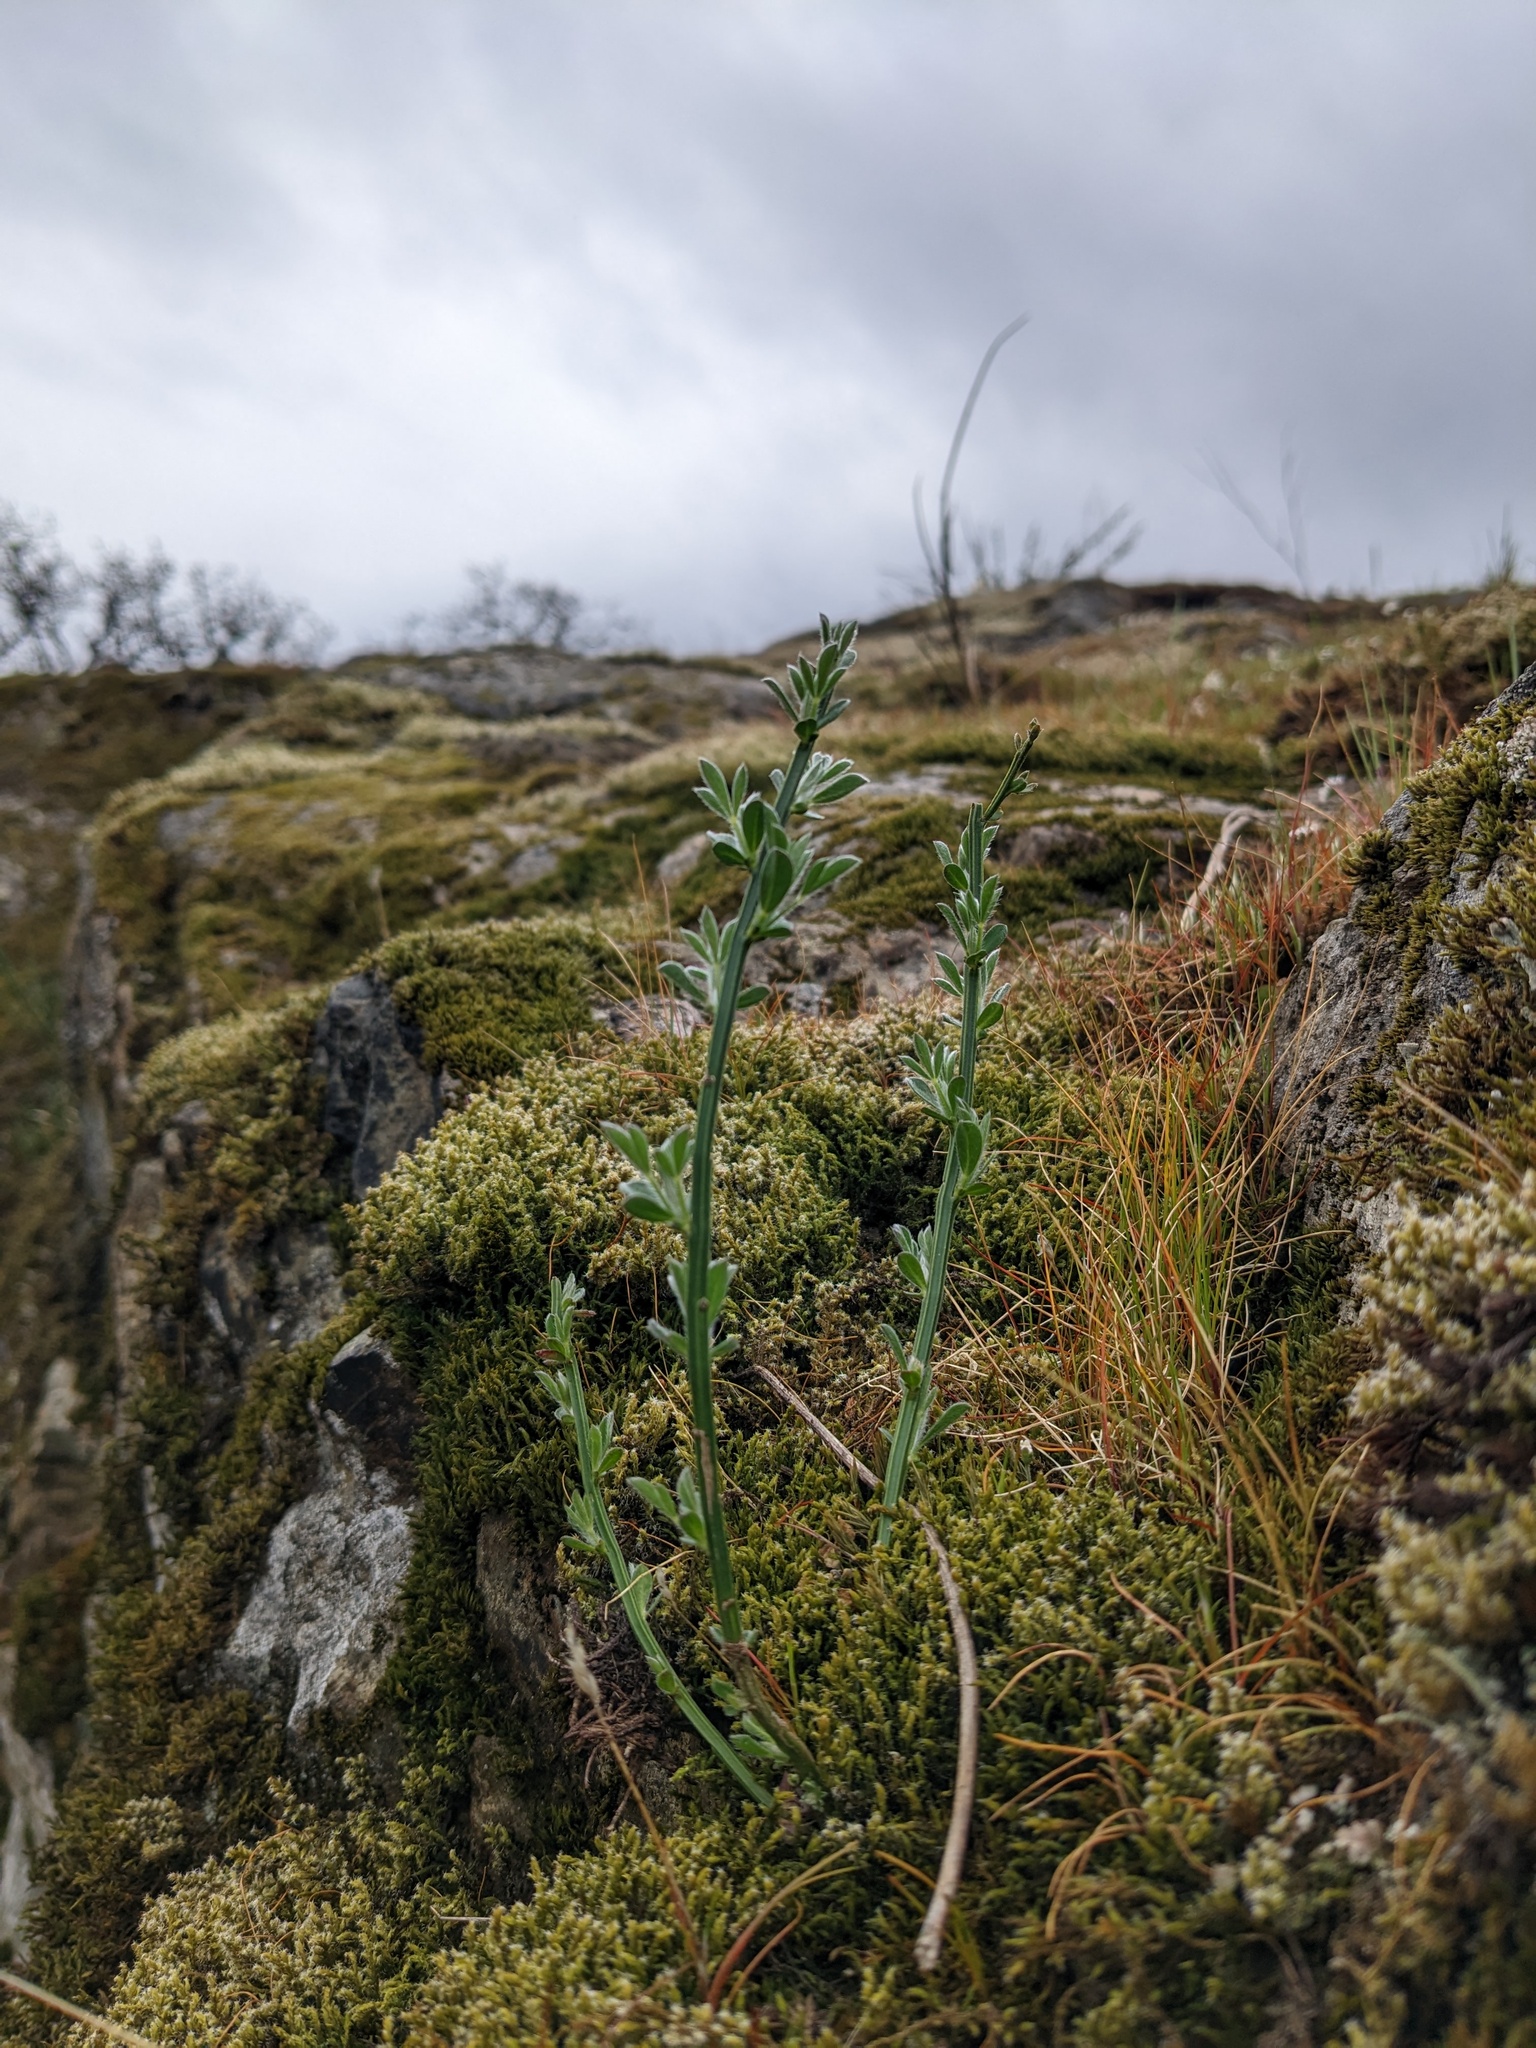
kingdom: Plantae
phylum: Tracheophyta
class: Magnoliopsida
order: Fabales
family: Fabaceae
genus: Cytisus
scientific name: Cytisus scoparius
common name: Scotch broom
